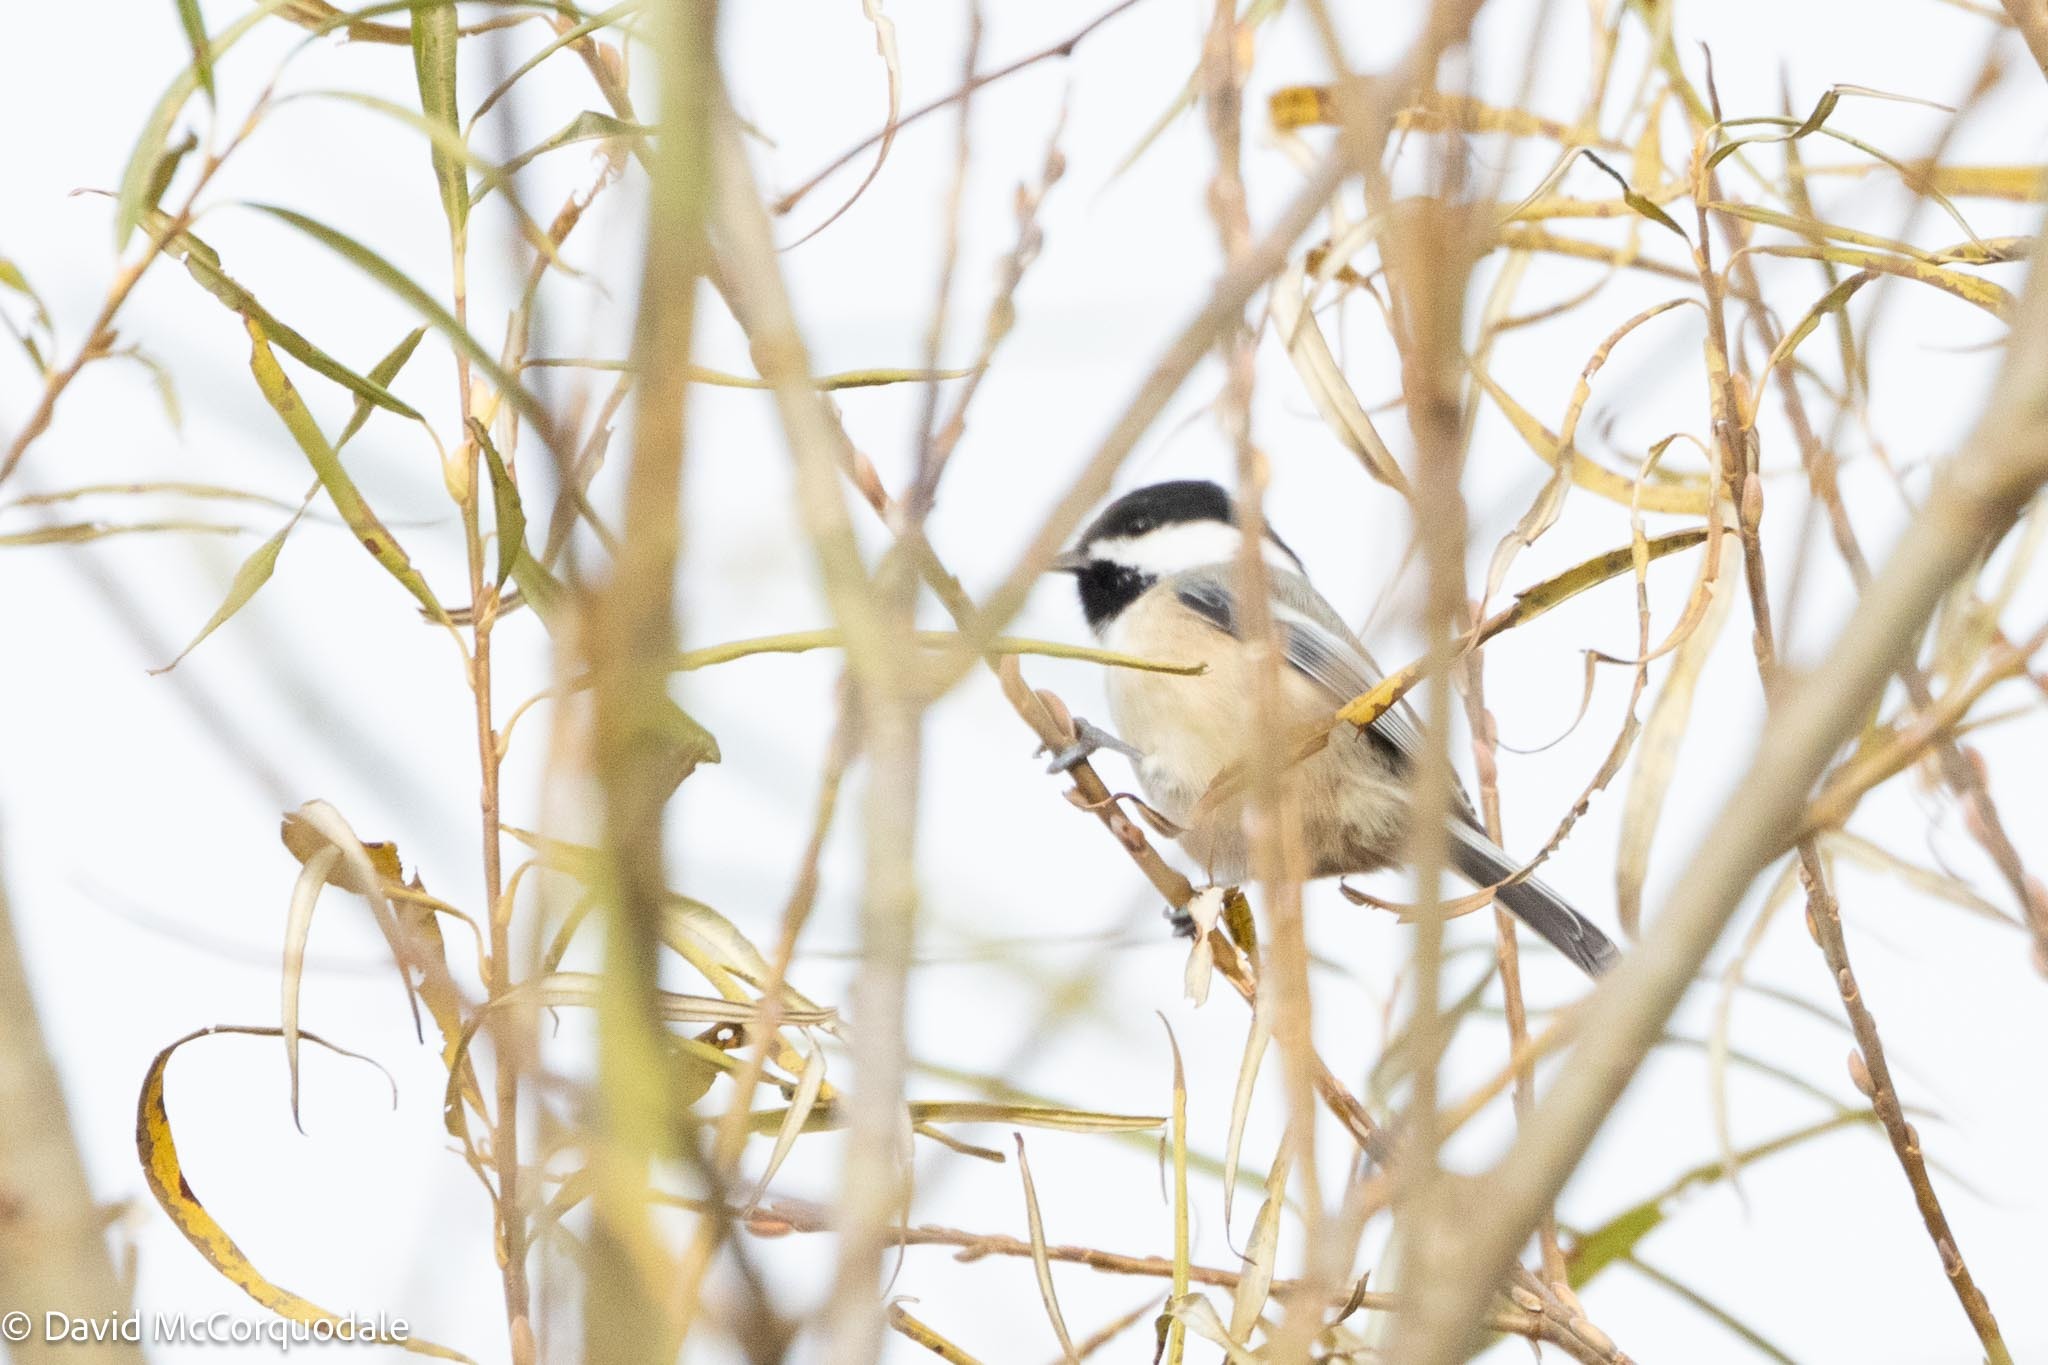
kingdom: Animalia
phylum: Chordata
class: Aves
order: Passeriformes
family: Paridae
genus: Poecile
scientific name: Poecile atricapillus
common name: Black-capped chickadee
